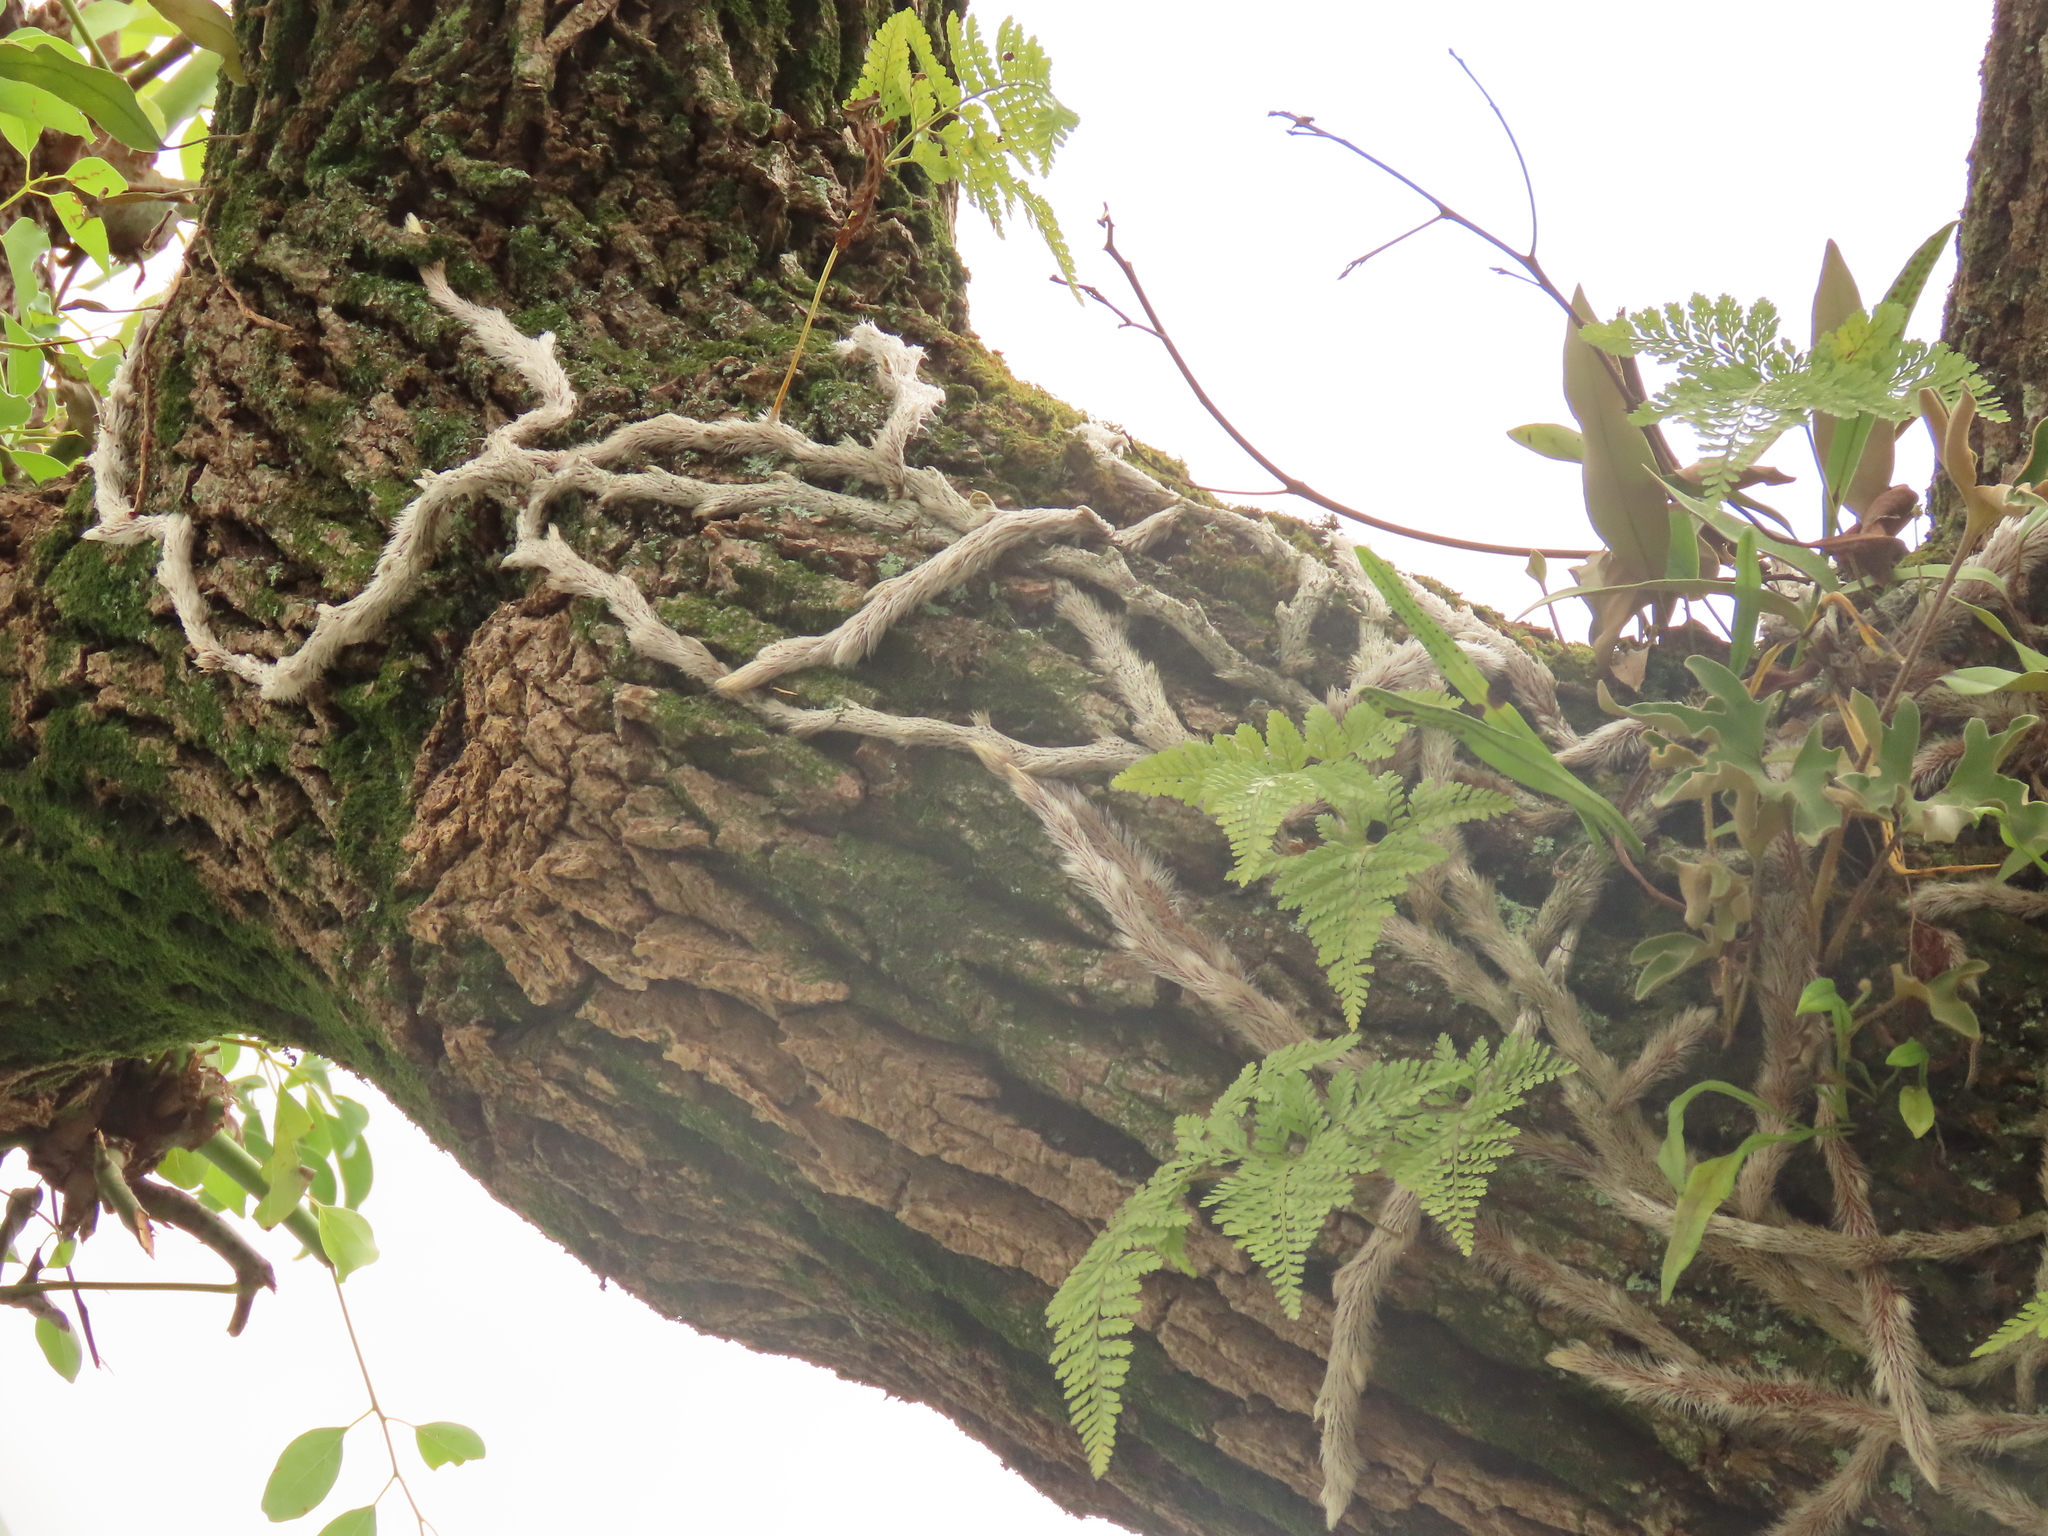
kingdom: Plantae
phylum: Tracheophyta
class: Polypodiopsida
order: Polypodiales
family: Davalliaceae
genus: Davallia
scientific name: Davallia griffithiana
